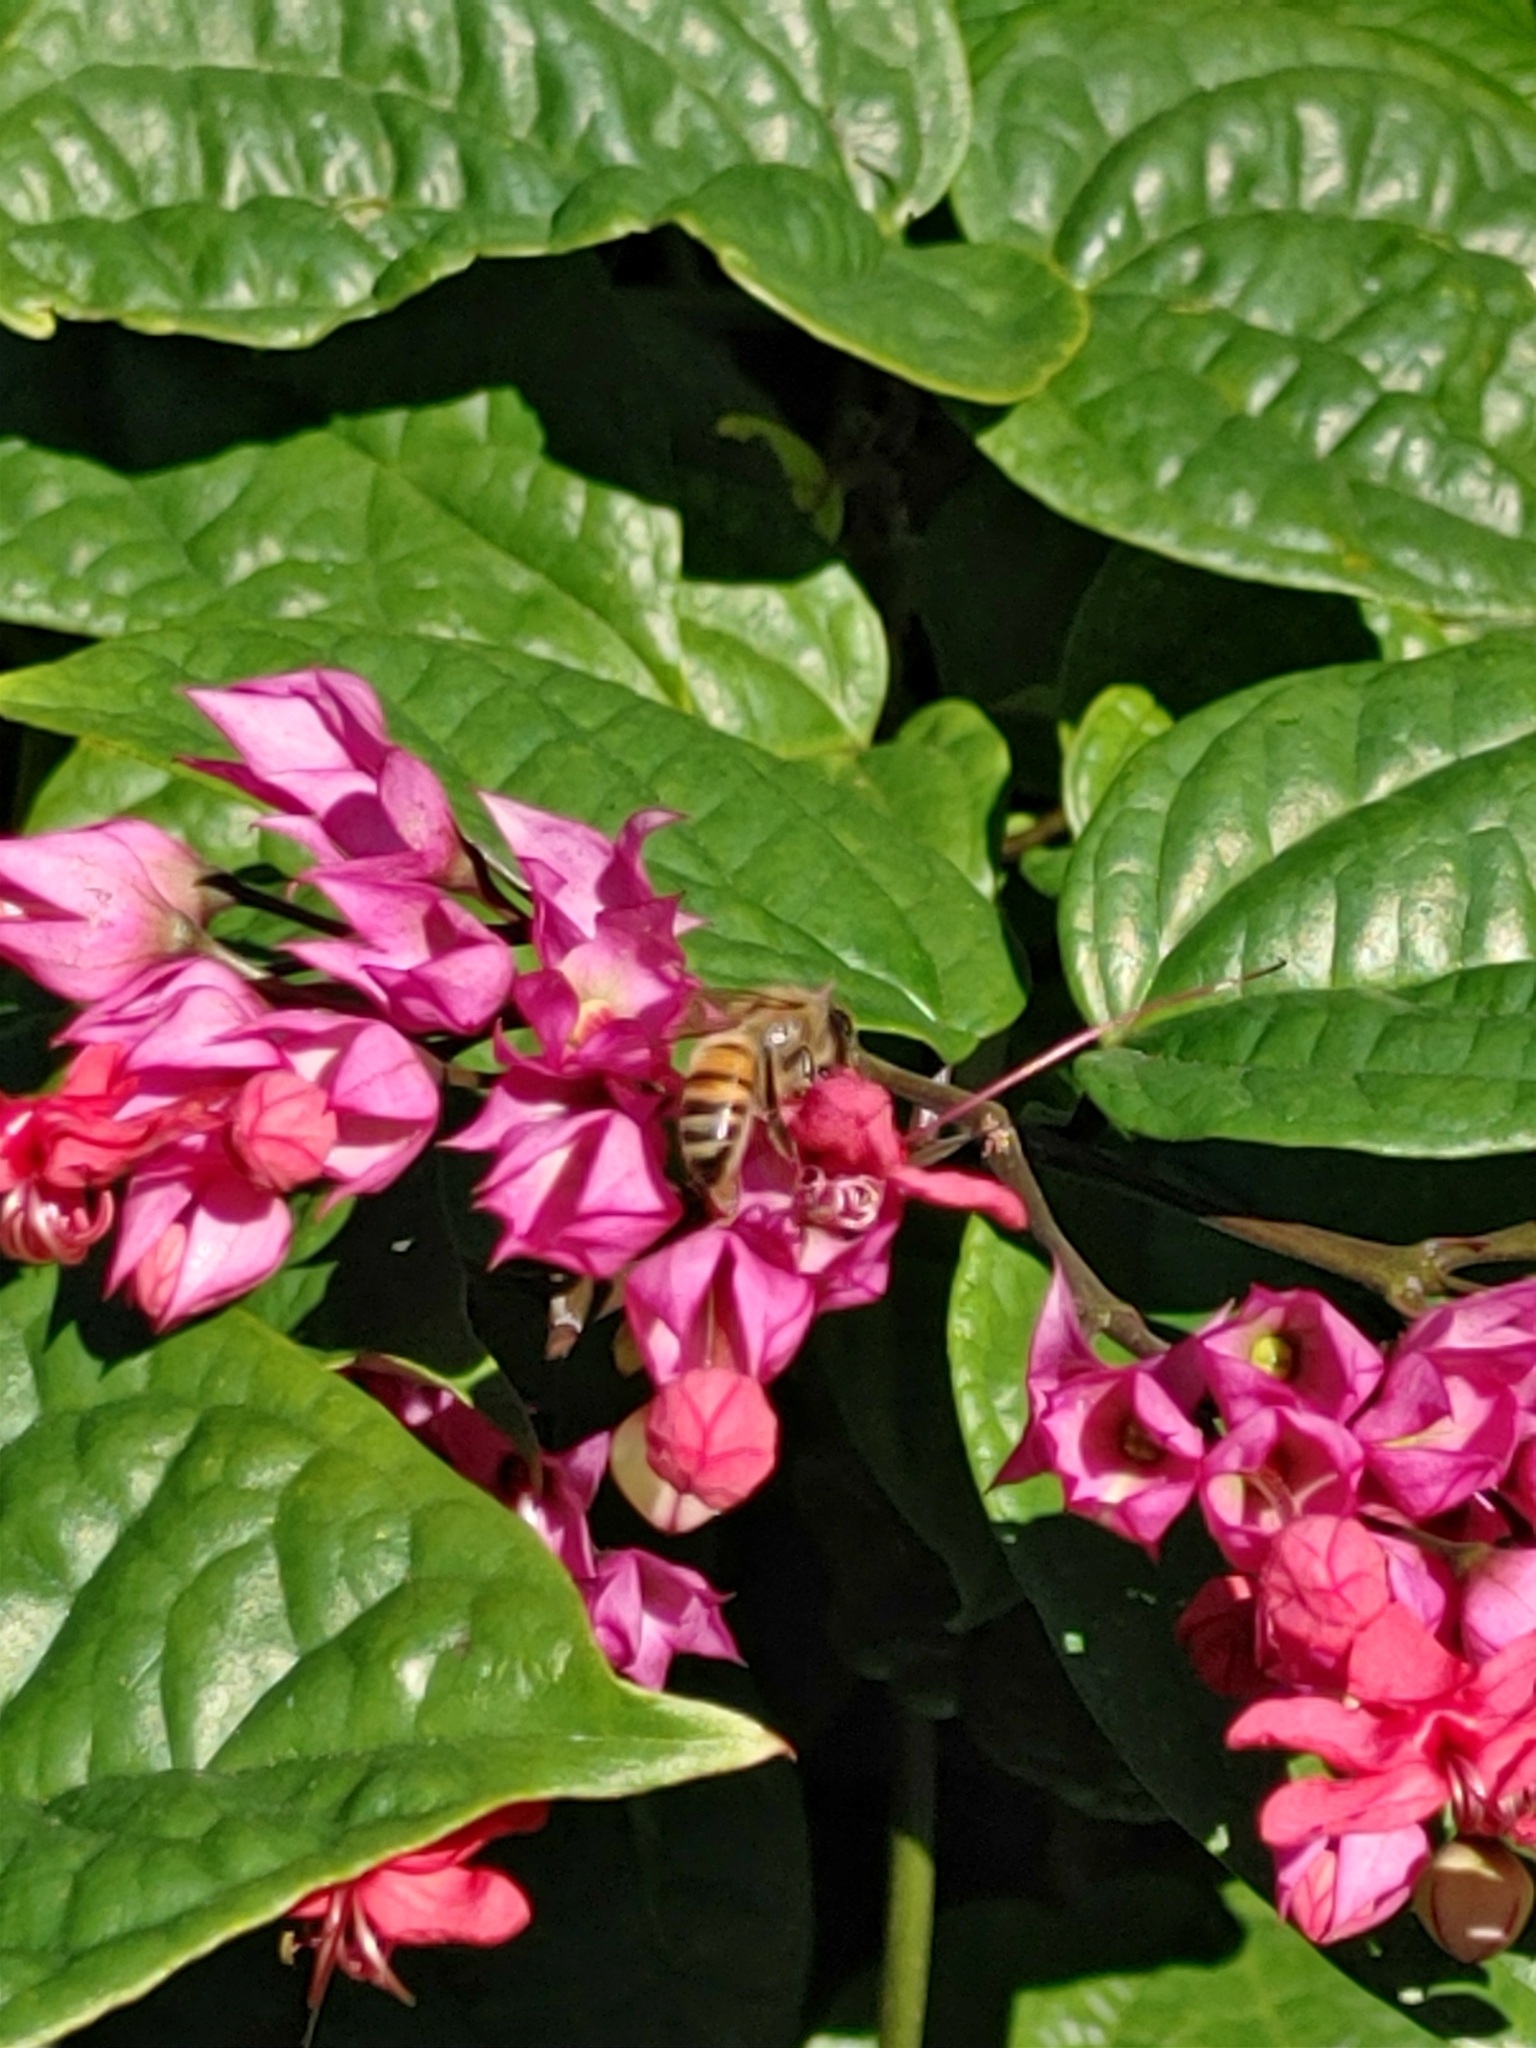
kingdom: Animalia
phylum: Arthropoda
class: Insecta
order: Hymenoptera
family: Apidae
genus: Apis
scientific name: Apis mellifera
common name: Honey bee
